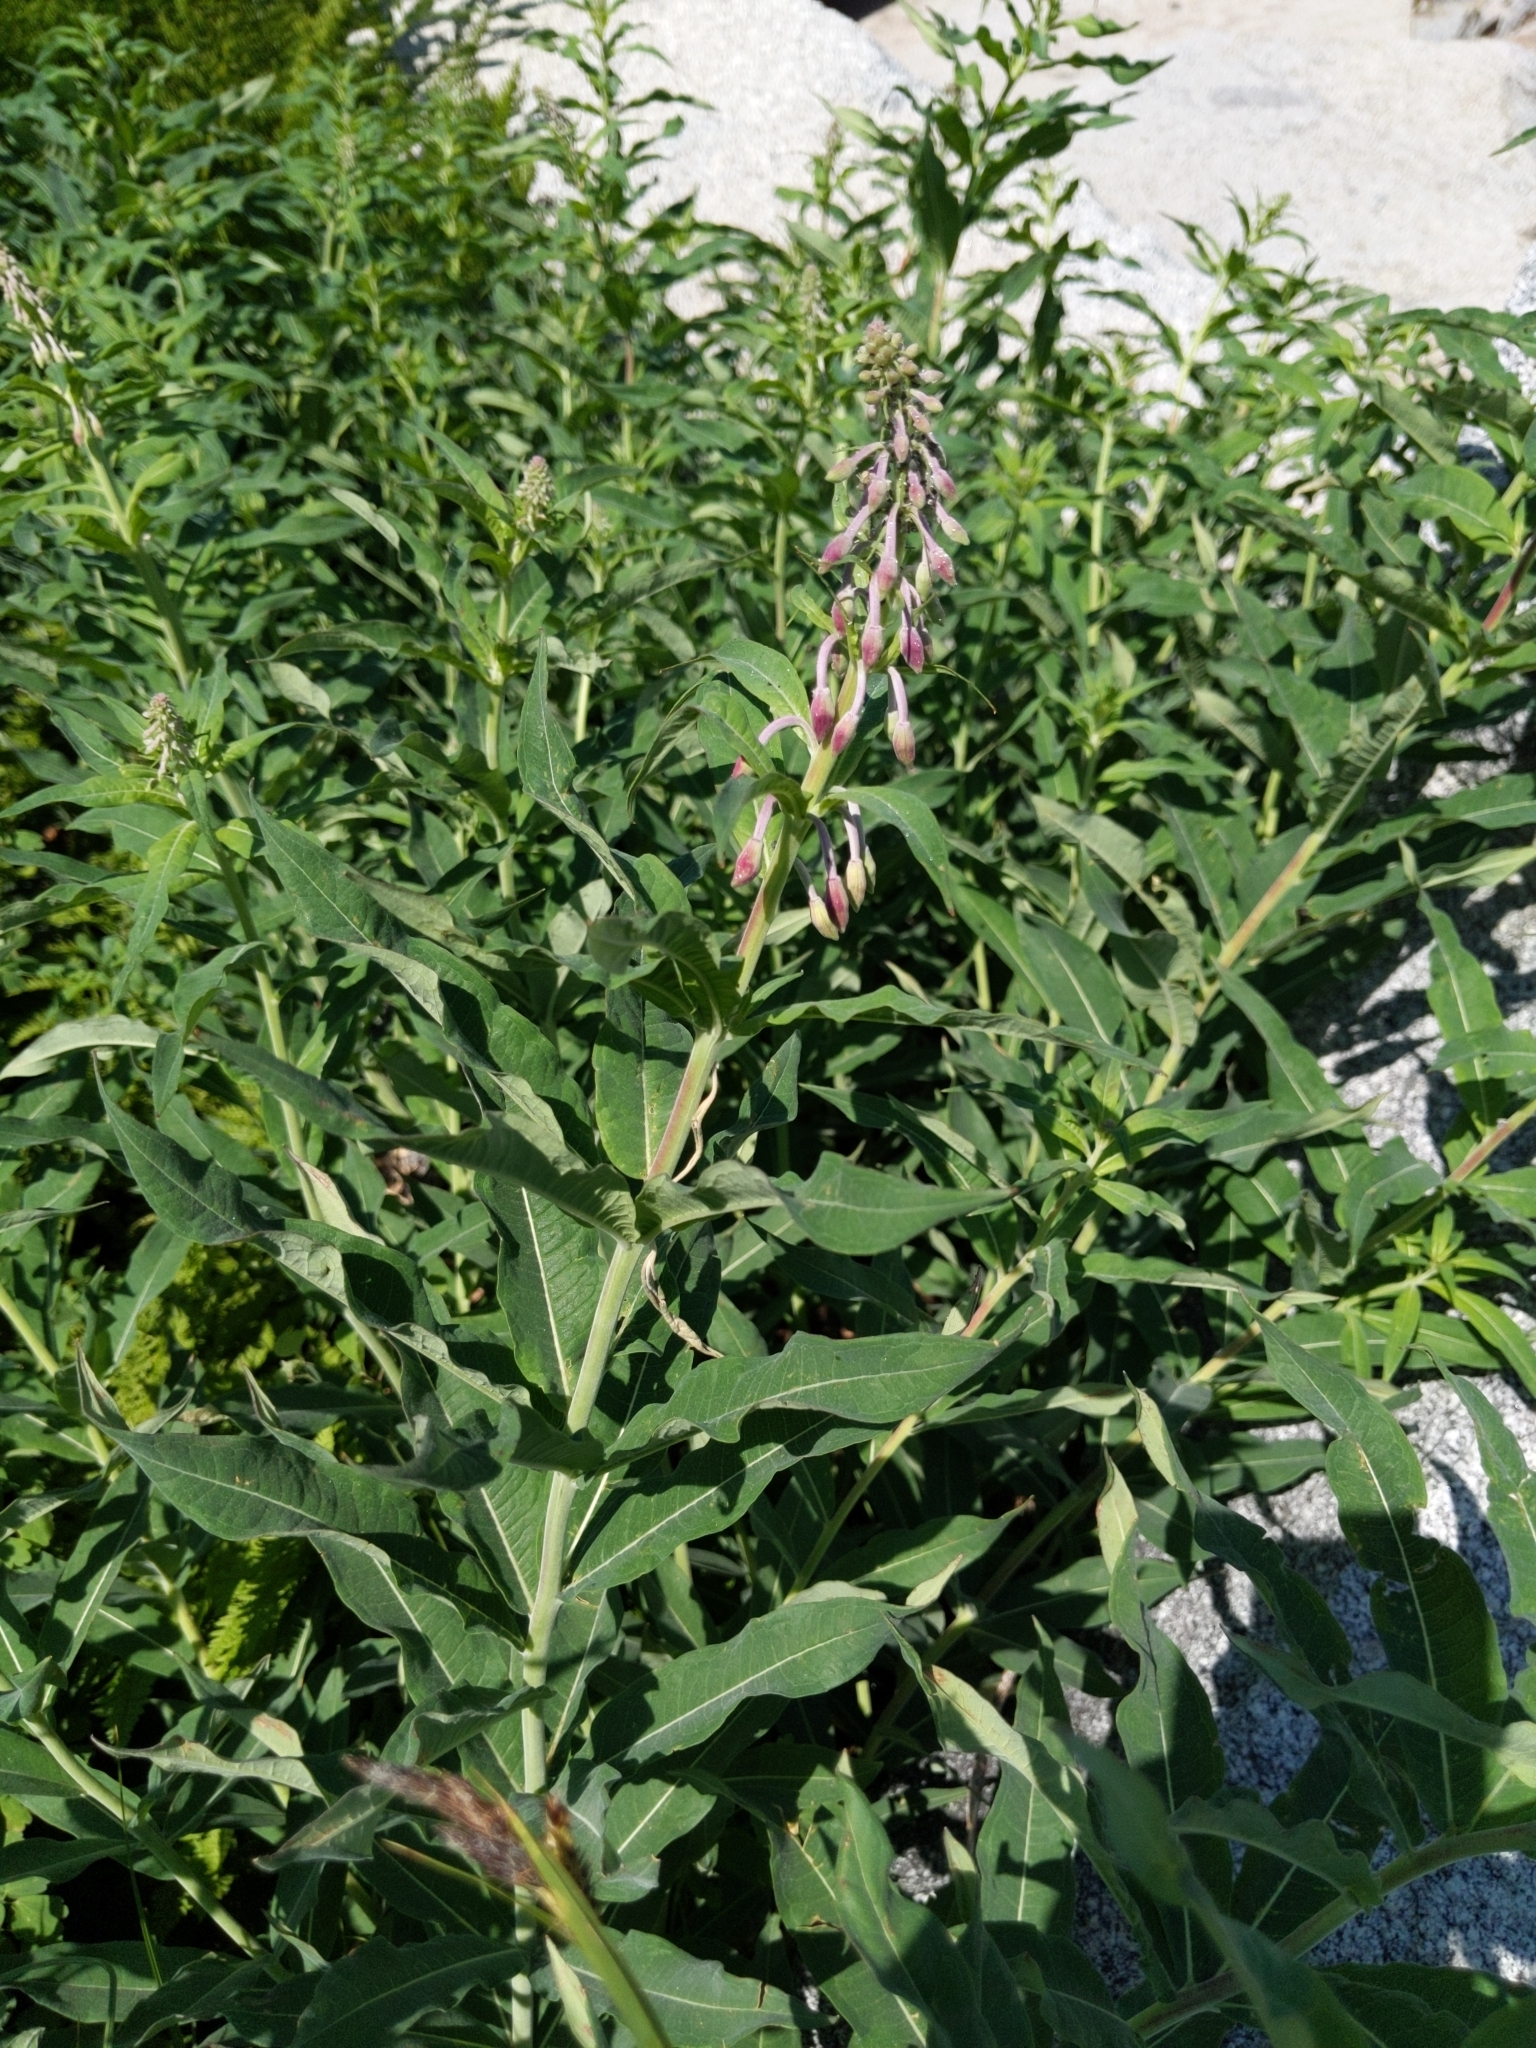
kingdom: Plantae
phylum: Tracheophyta
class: Magnoliopsida
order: Myrtales
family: Onagraceae
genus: Chamaenerion
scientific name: Chamaenerion angustifolium
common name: Fireweed
